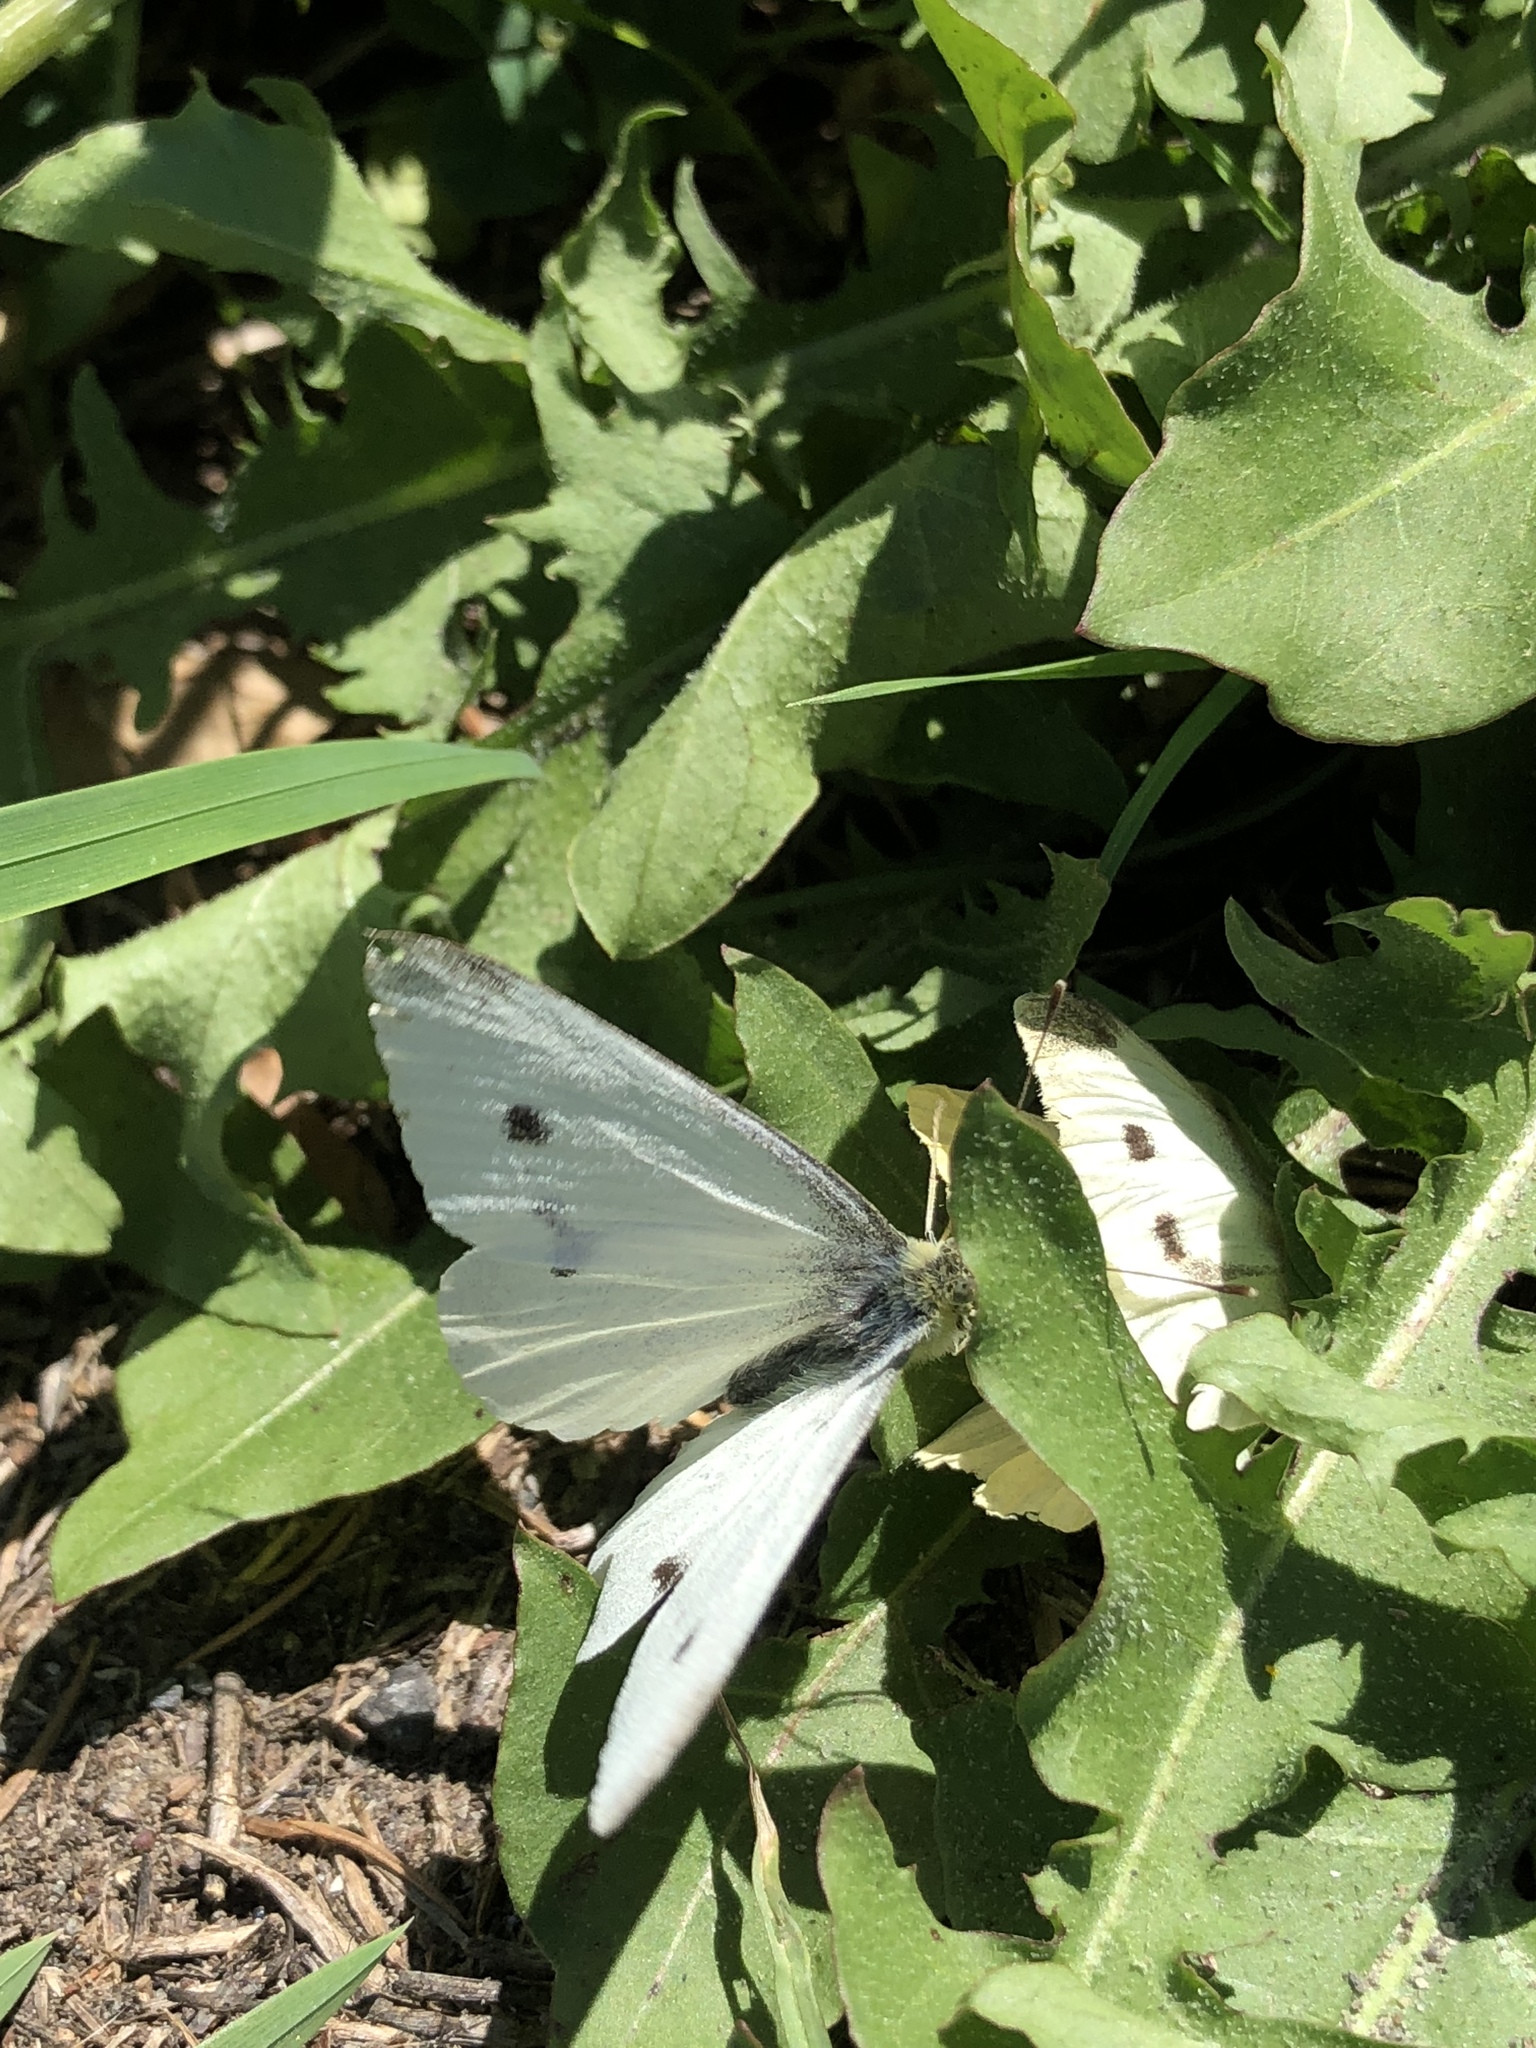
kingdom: Animalia
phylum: Arthropoda
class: Insecta
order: Lepidoptera
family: Pieridae
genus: Pieris
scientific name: Pieris rapae
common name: Small white
